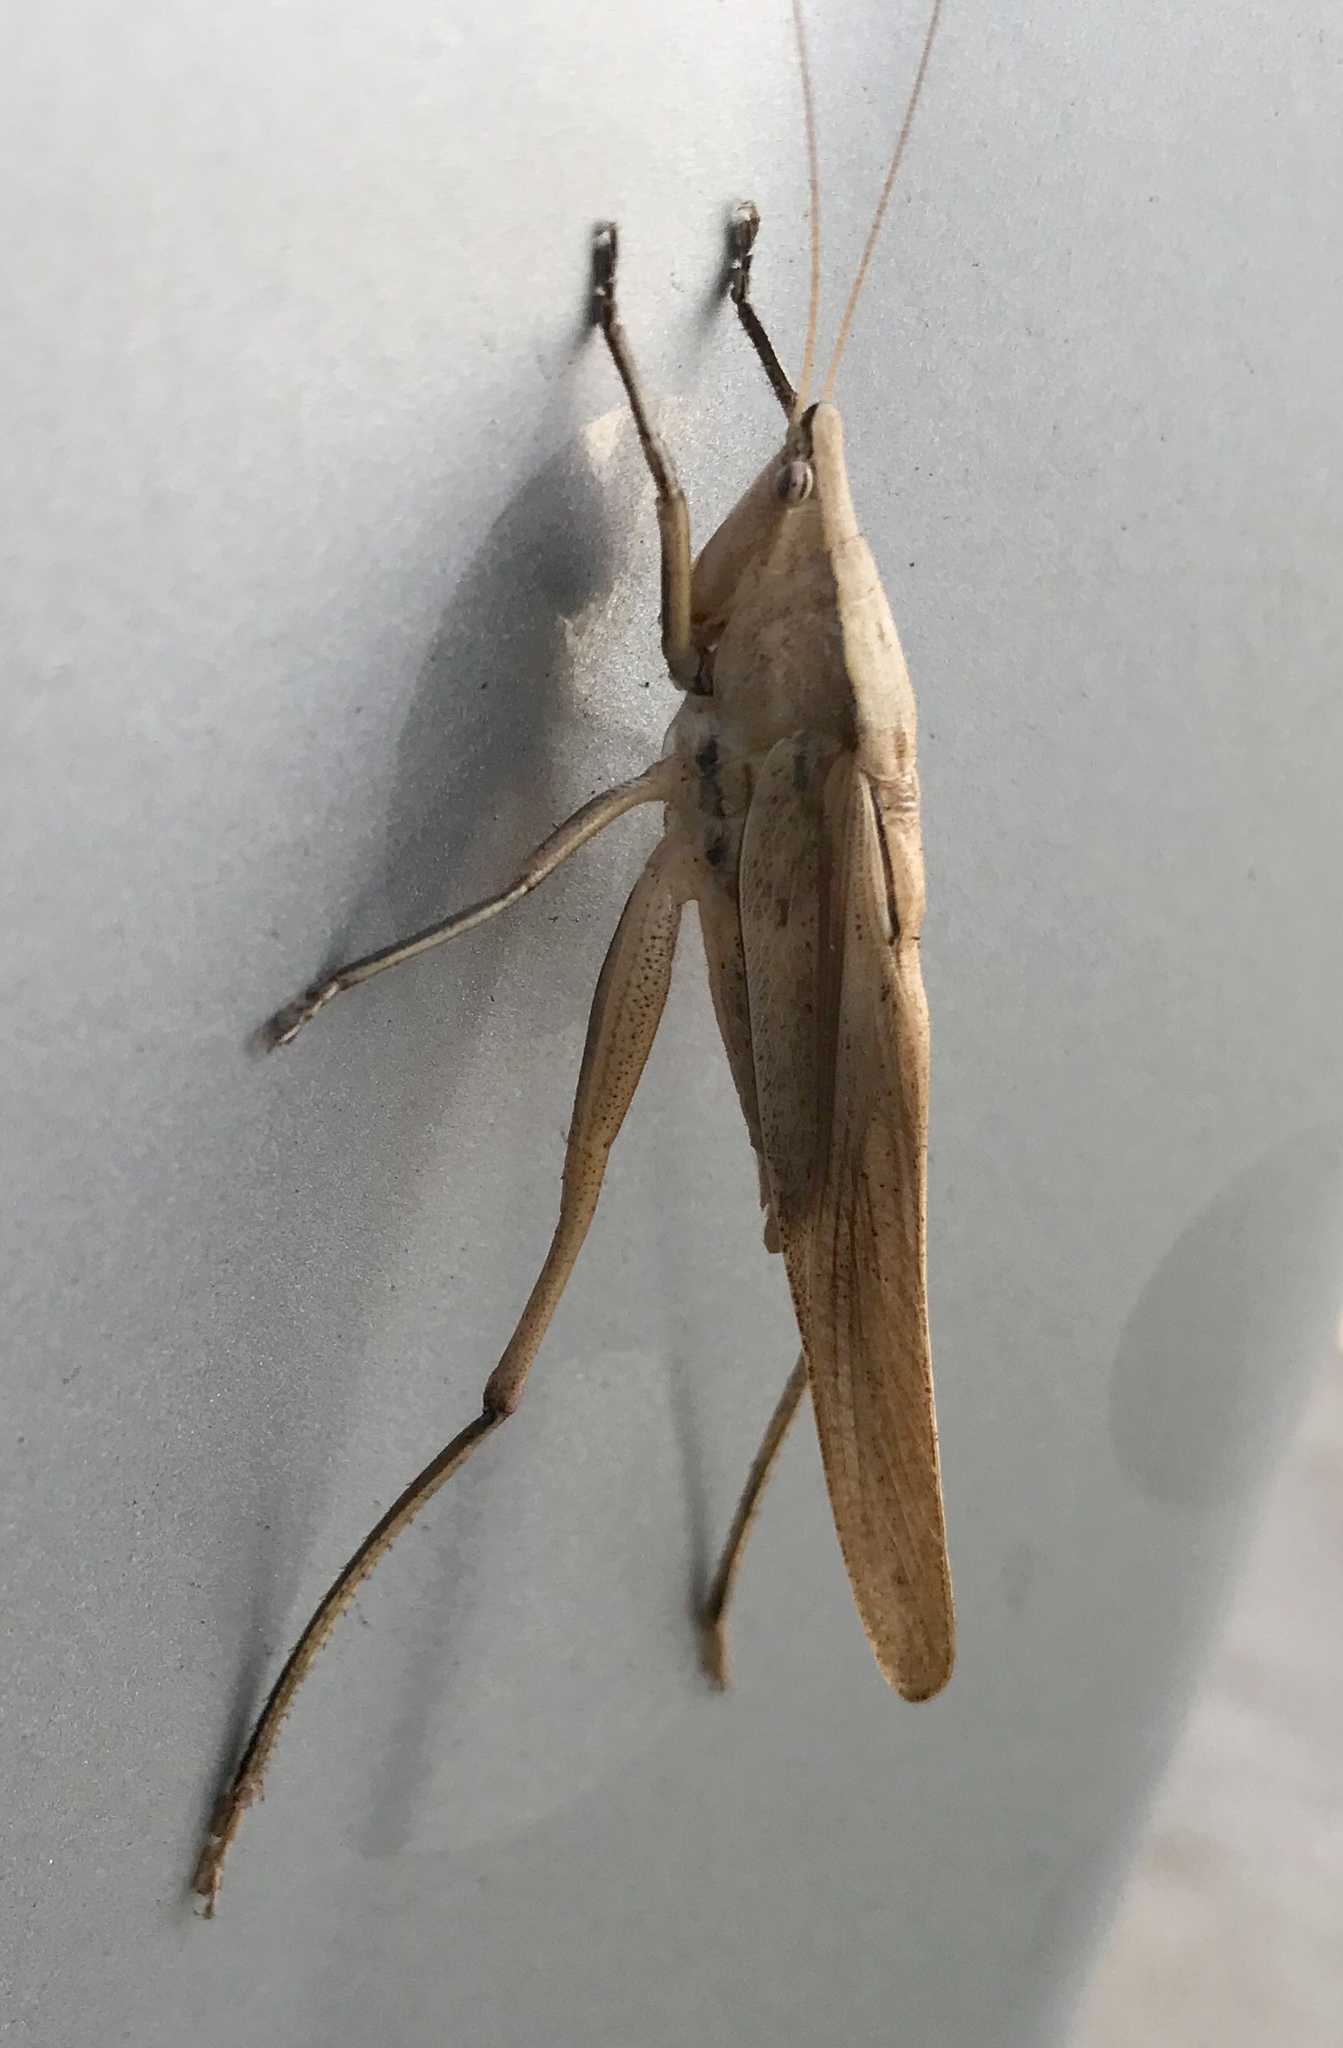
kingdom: Animalia
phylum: Arthropoda
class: Insecta
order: Orthoptera
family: Tettigoniidae
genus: Neoconocephalus
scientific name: Neoconocephalus triops
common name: Broad-tipped conehead
